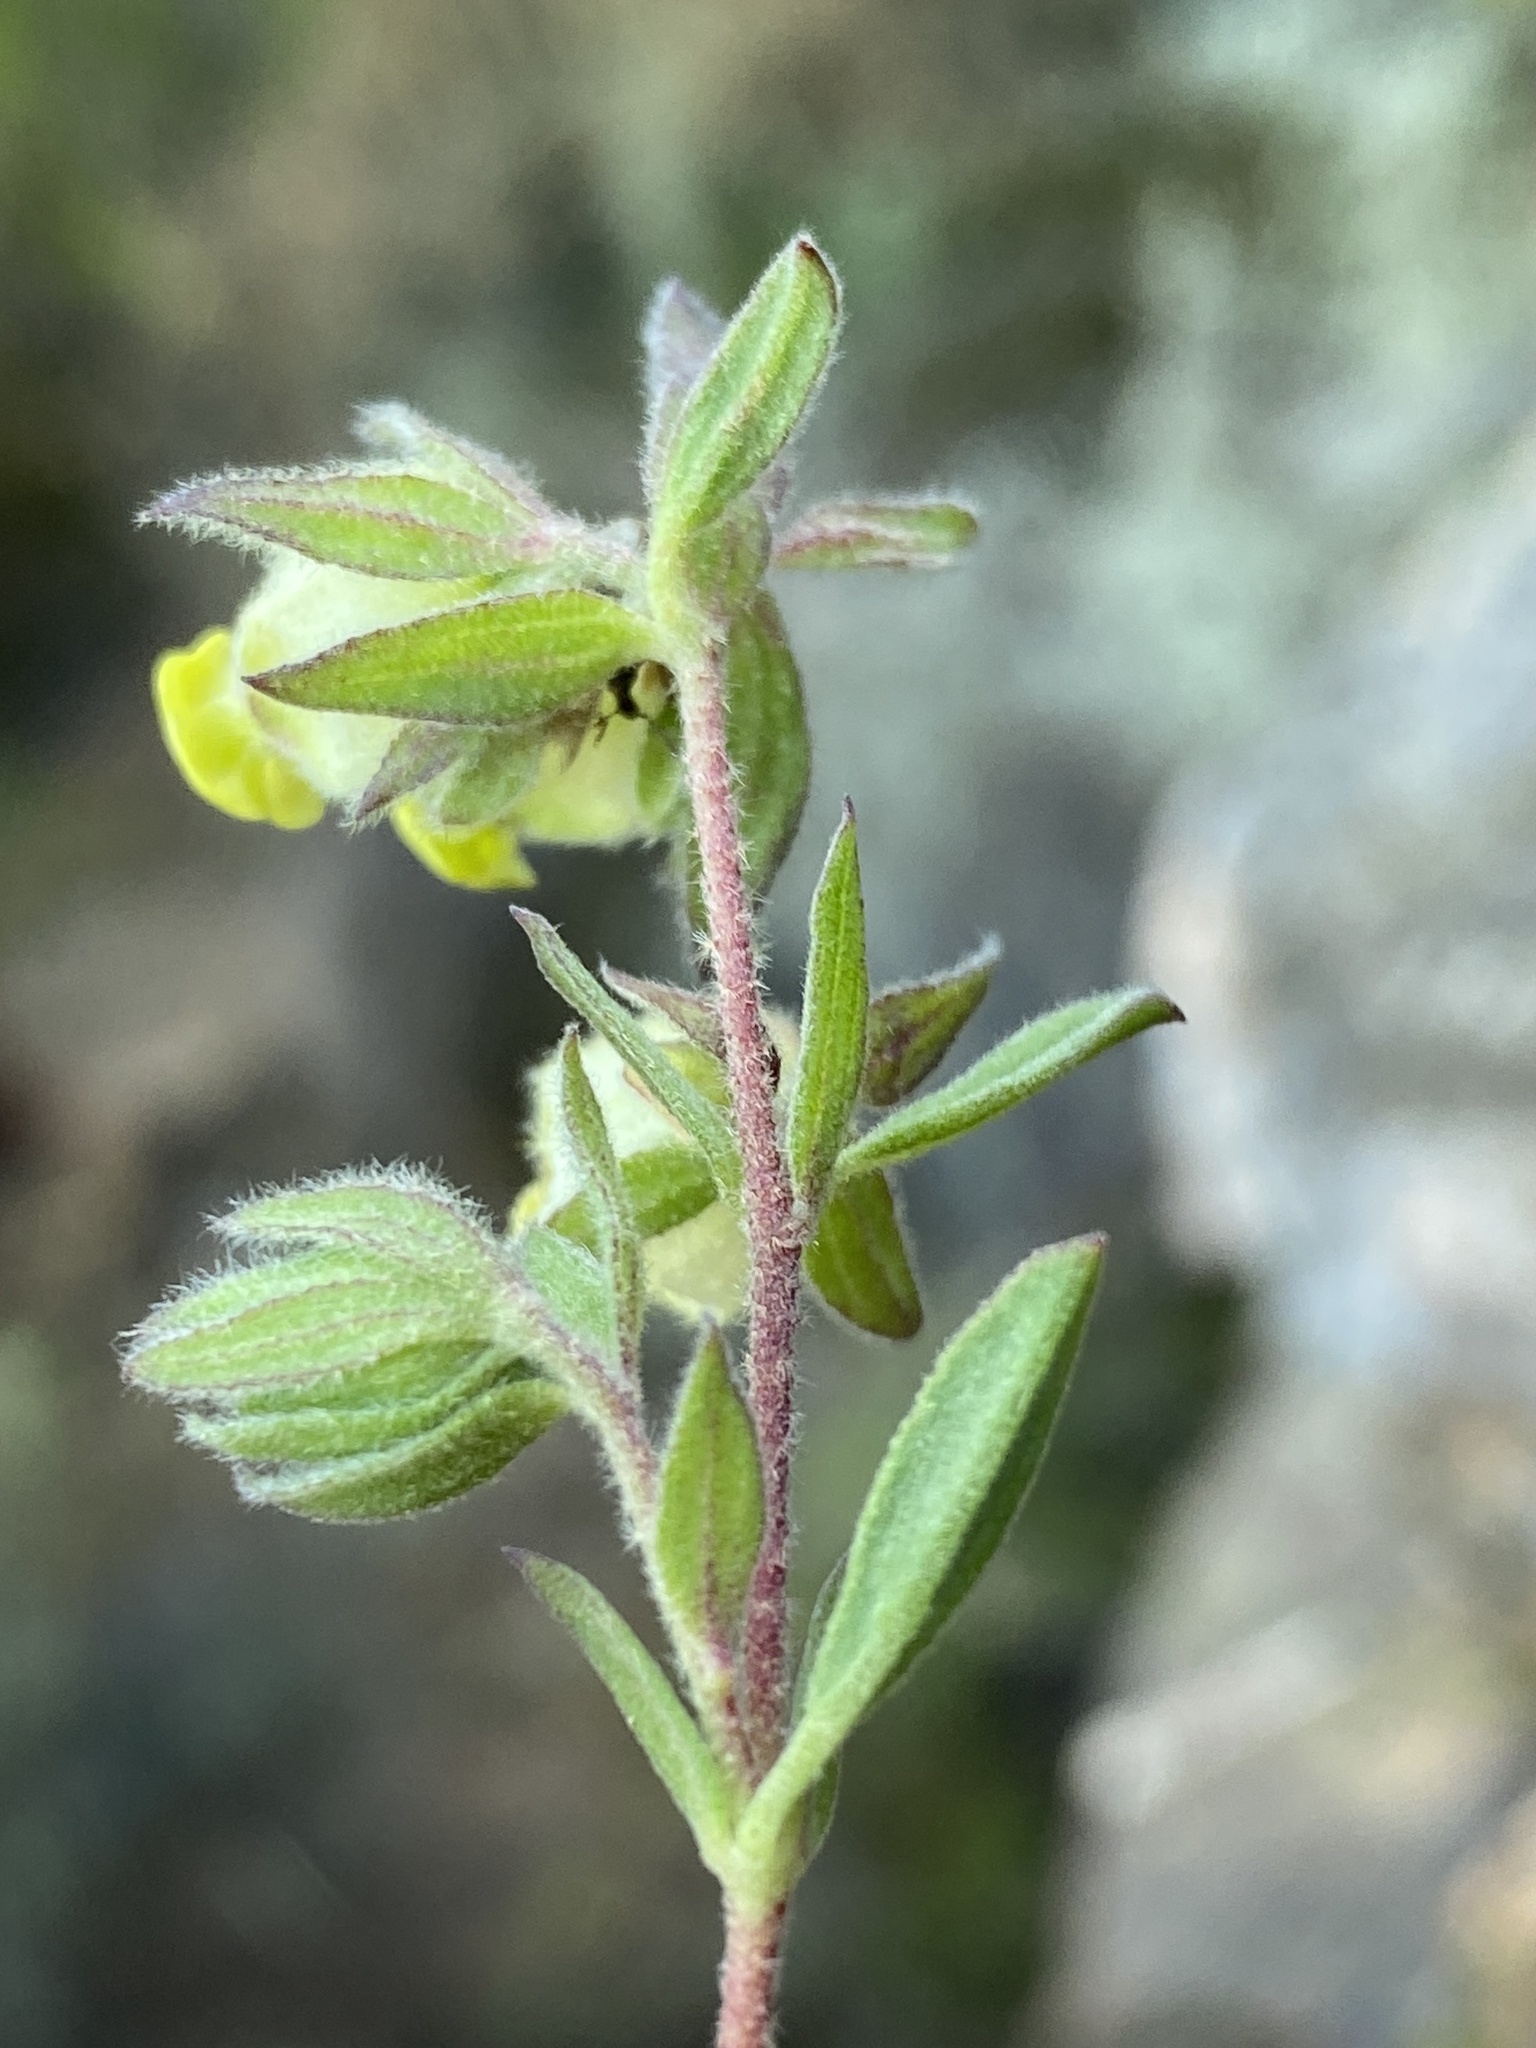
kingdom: Plantae
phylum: Tracheophyta
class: Magnoliopsida
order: Malvales
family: Malvaceae
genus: Hermannia
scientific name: Hermannia hyssopifolia
